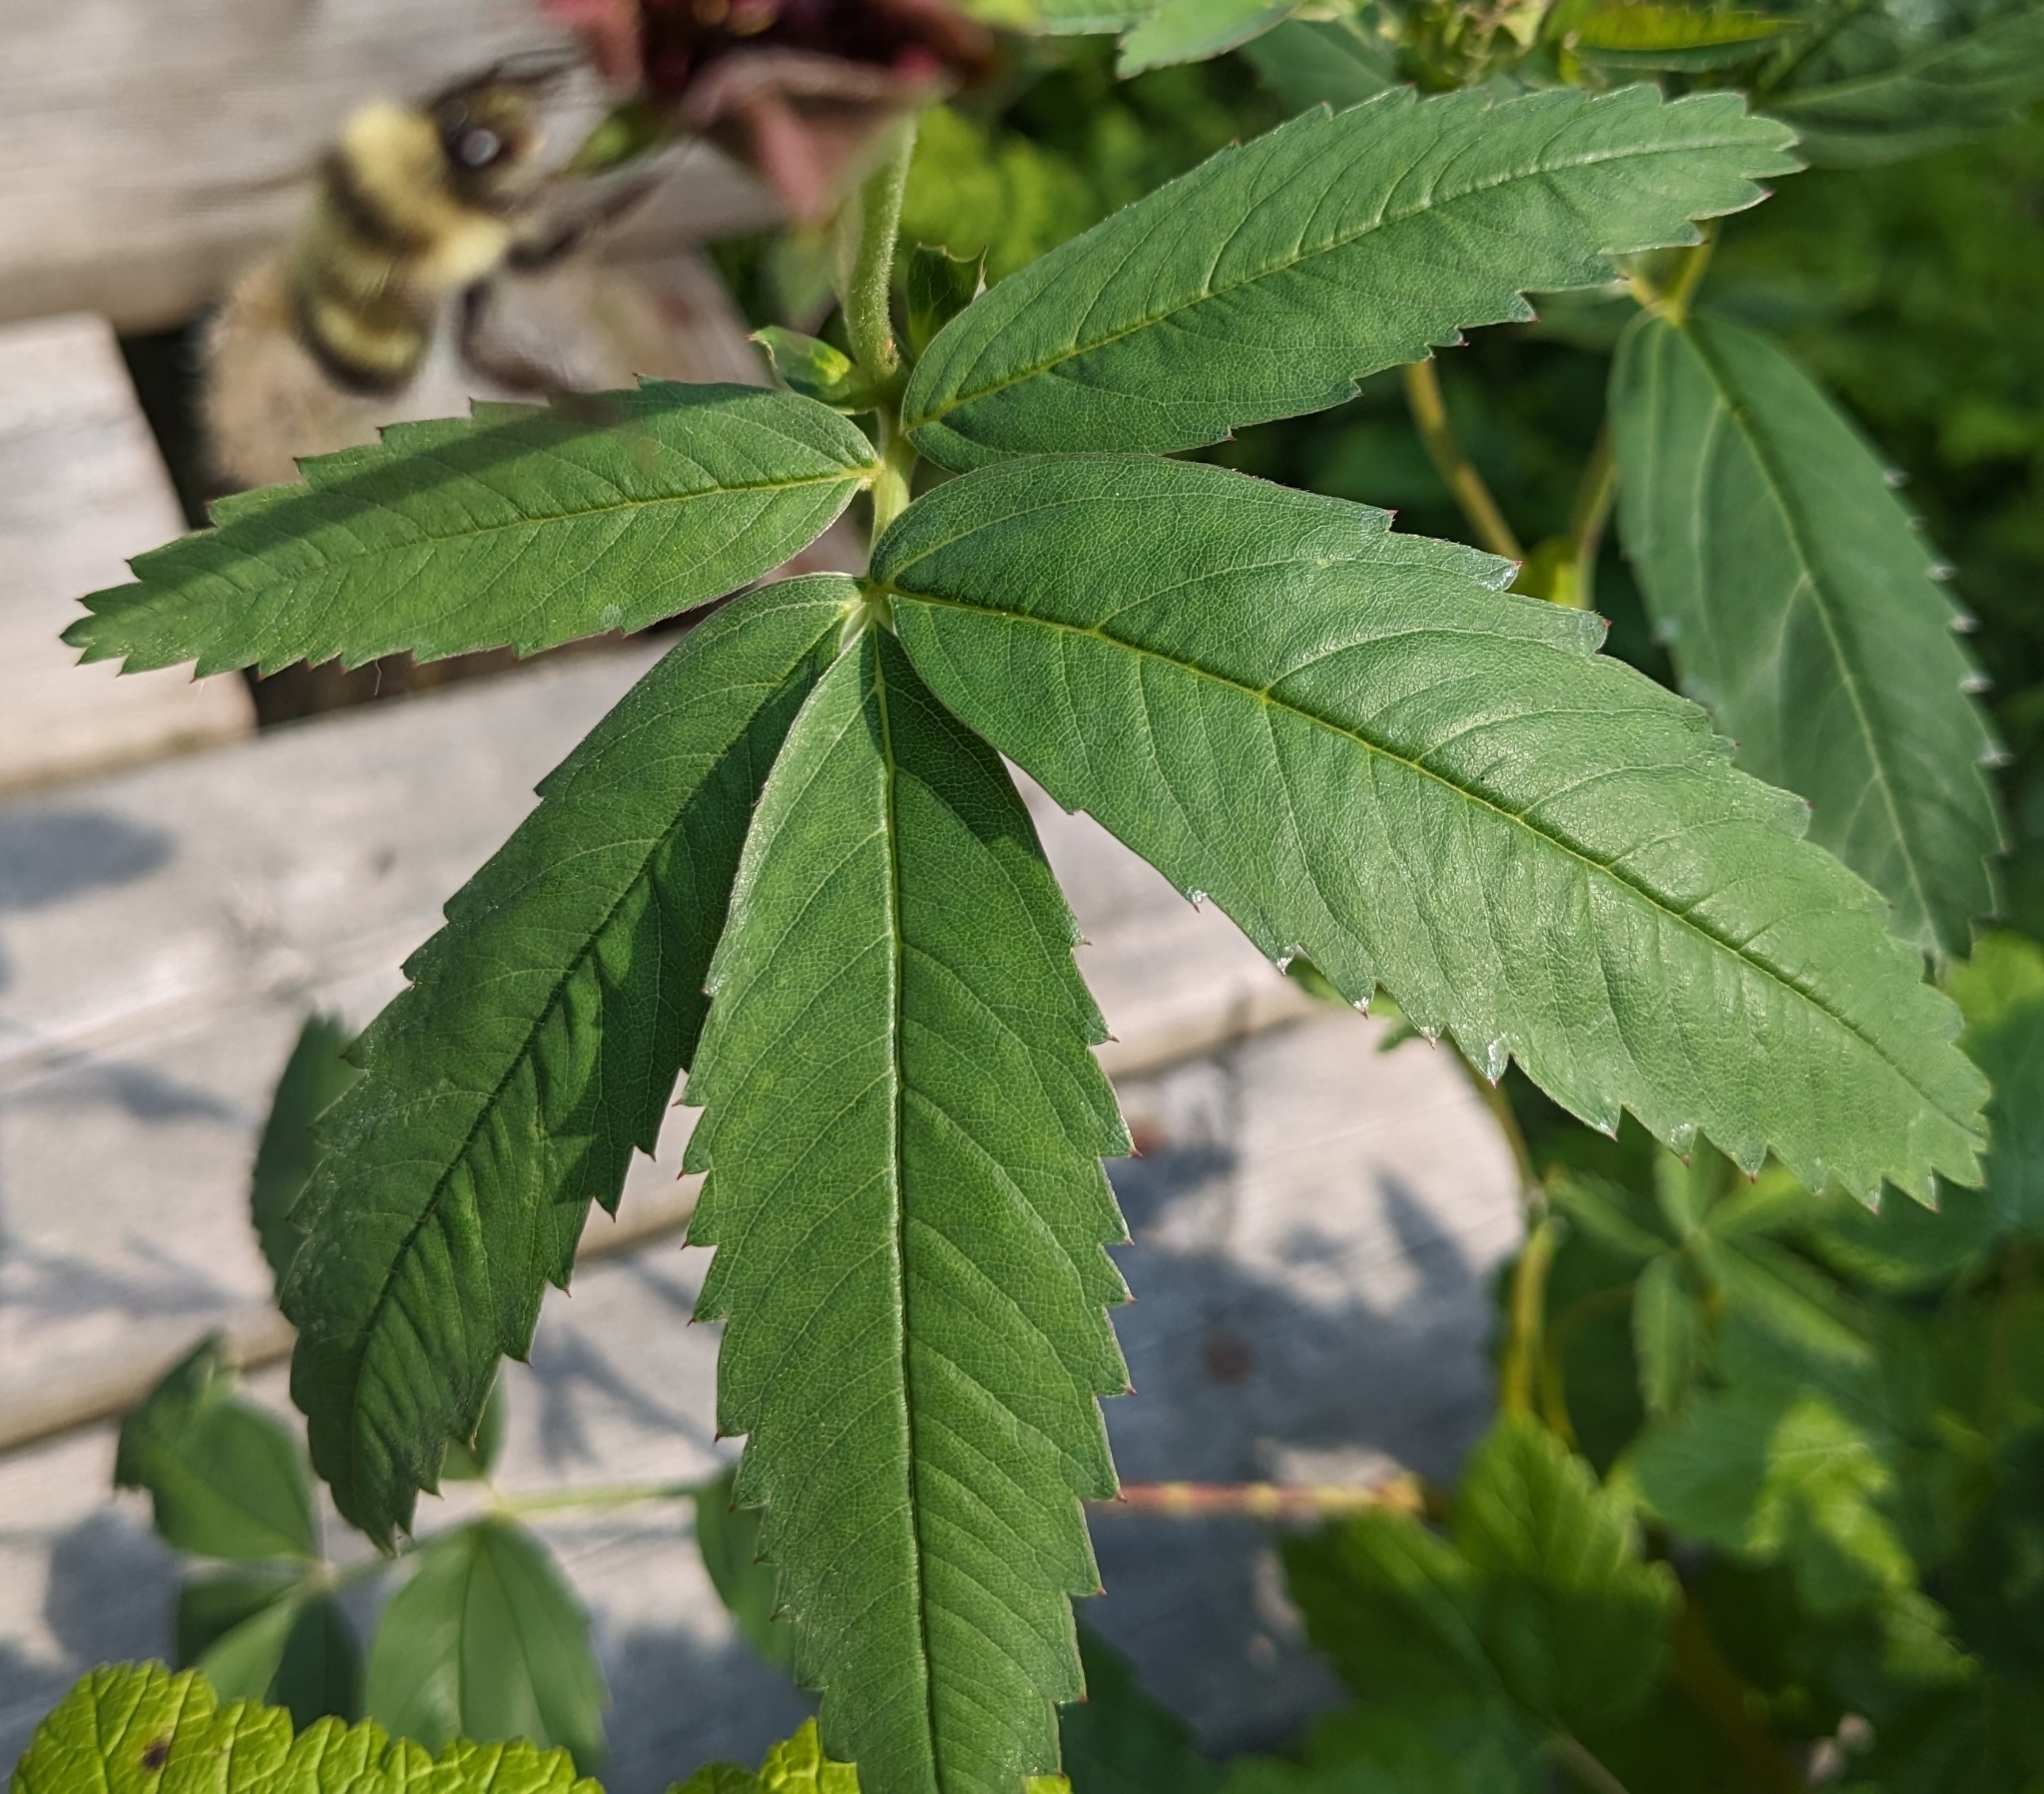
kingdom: Plantae
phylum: Tracheophyta
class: Magnoliopsida
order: Rosales
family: Rosaceae
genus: Comarum
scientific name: Comarum palustre
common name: Marsh cinquefoil
